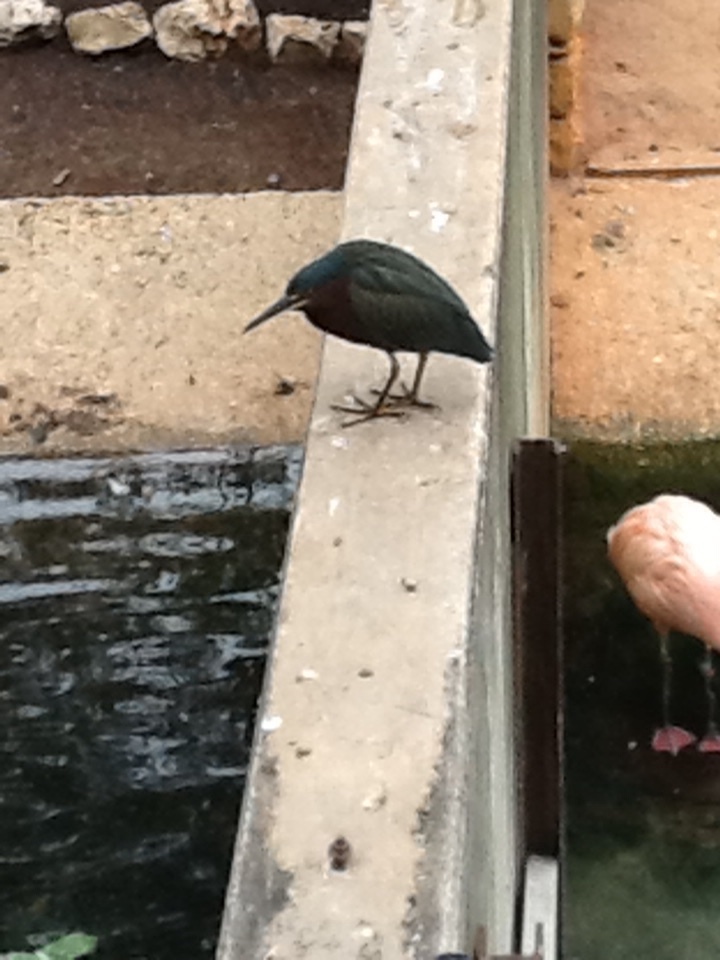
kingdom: Animalia
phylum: Chordata
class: Aves
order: Pelecaniformes
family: Ardeidae
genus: Butorides
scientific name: Butorides virescens
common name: Green heron
